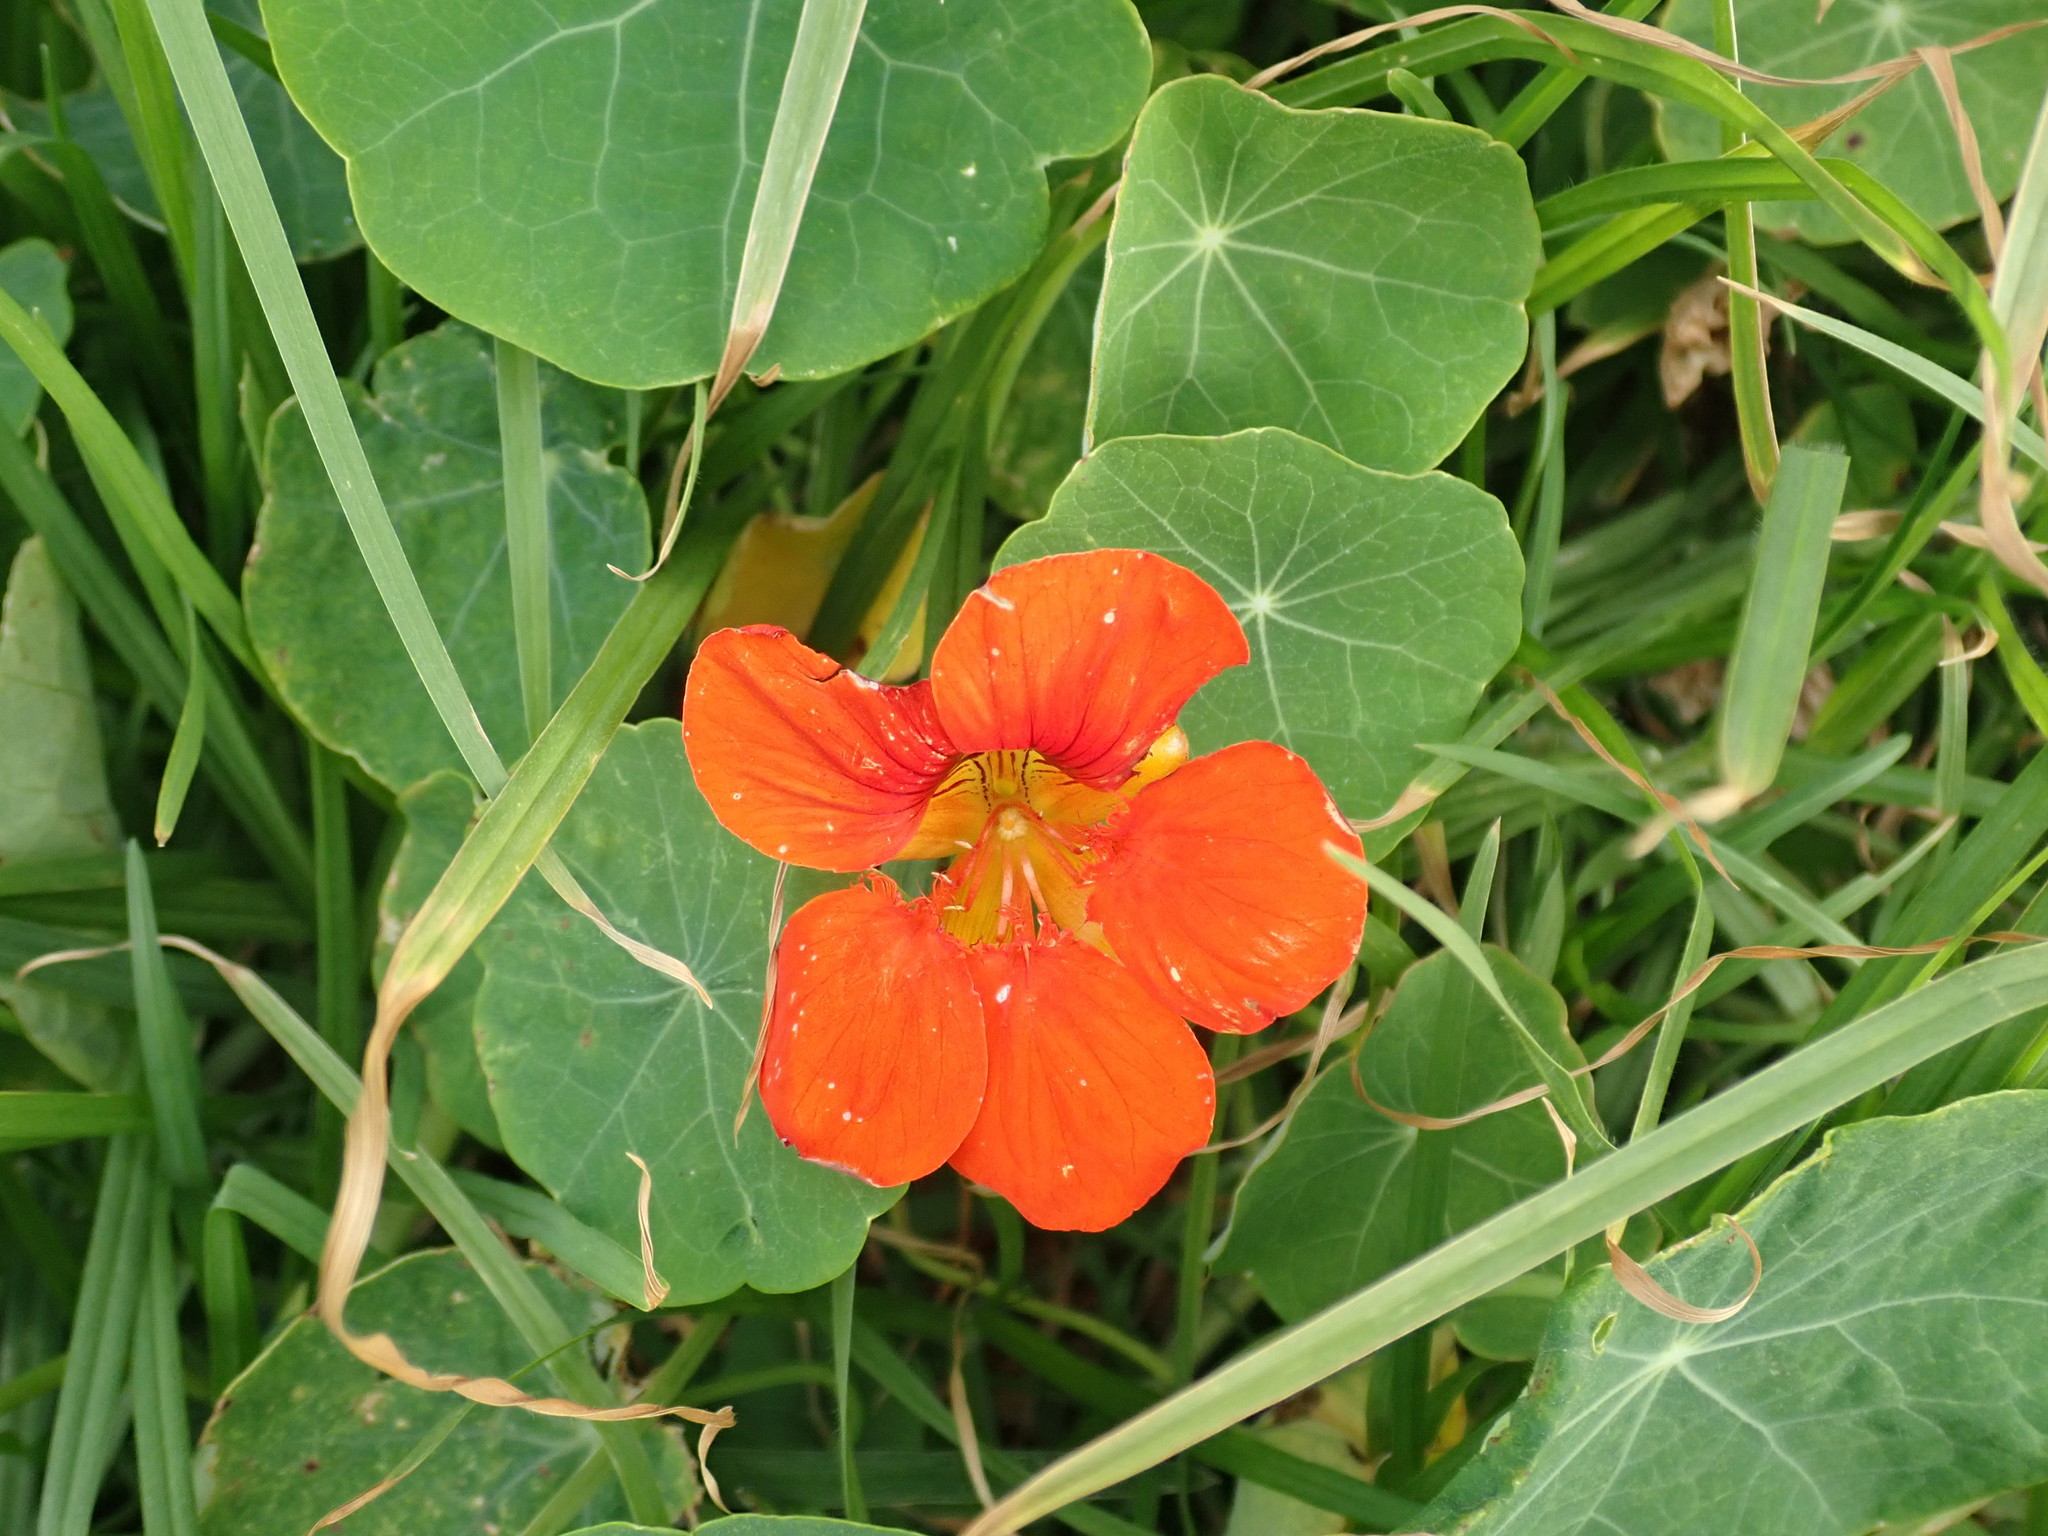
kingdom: Plantae
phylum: Tracheophyta
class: Magnoliopsida
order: Brassicales
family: Tropaeolaceae
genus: Tropaeolum
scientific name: Tropaeolum majus
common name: Nasturtium
